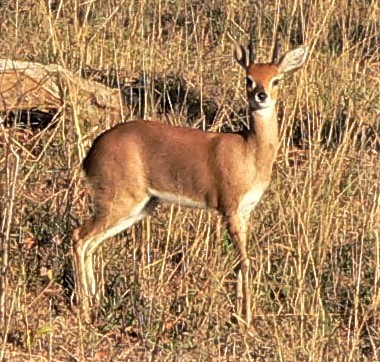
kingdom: Animalia
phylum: Chordata
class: Mammalia
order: Artiodactyla
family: Bovidae
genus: Raphicerus
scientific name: Raphicerus campestris
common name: Steenbok
